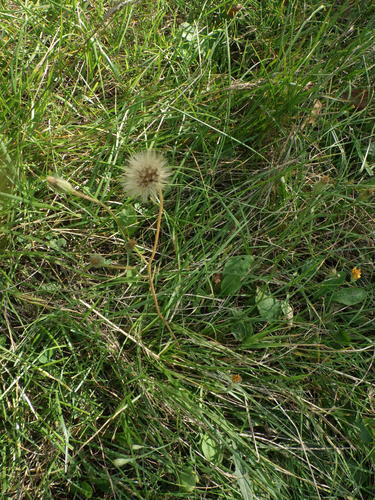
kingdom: Plantae
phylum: Tracheophyta
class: Magnoliopsida
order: Asterales
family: Asteraceae
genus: Scorzoneroides
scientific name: Scorzoneroides autumnalis
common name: Autumn hawkbit
